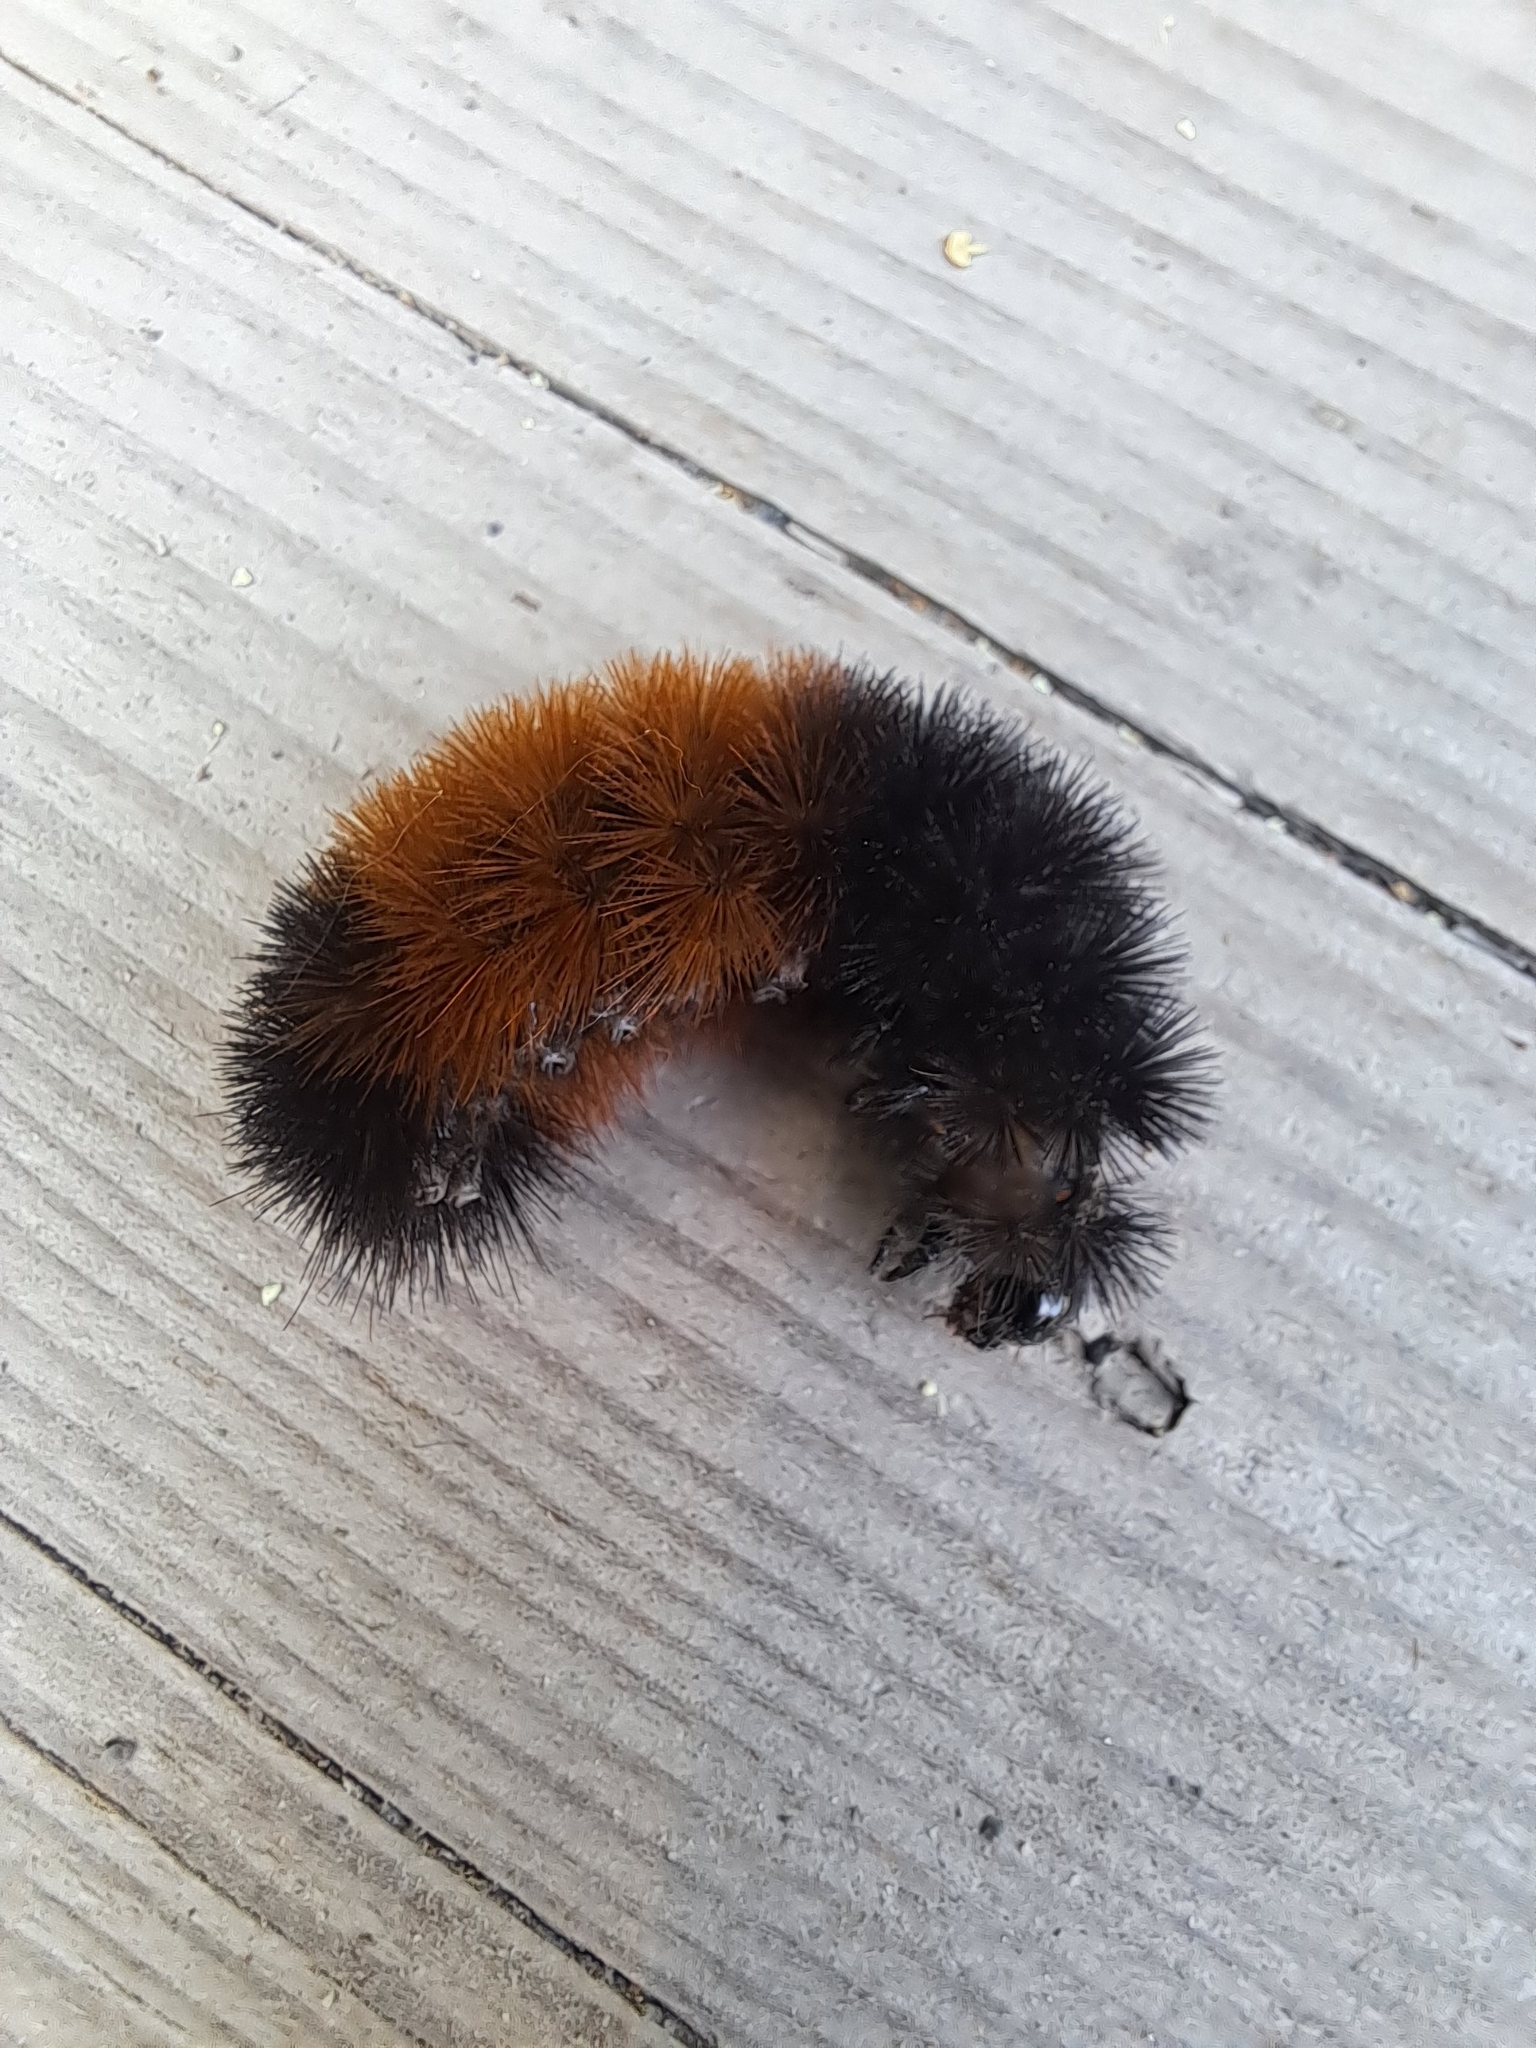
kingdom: Animalia
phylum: Arthropoda
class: Insecta
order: Lepidoptera
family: Erebidae
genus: Pyrrharctia
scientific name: Pyrrharctia isabella
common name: Isabella tiger moth
